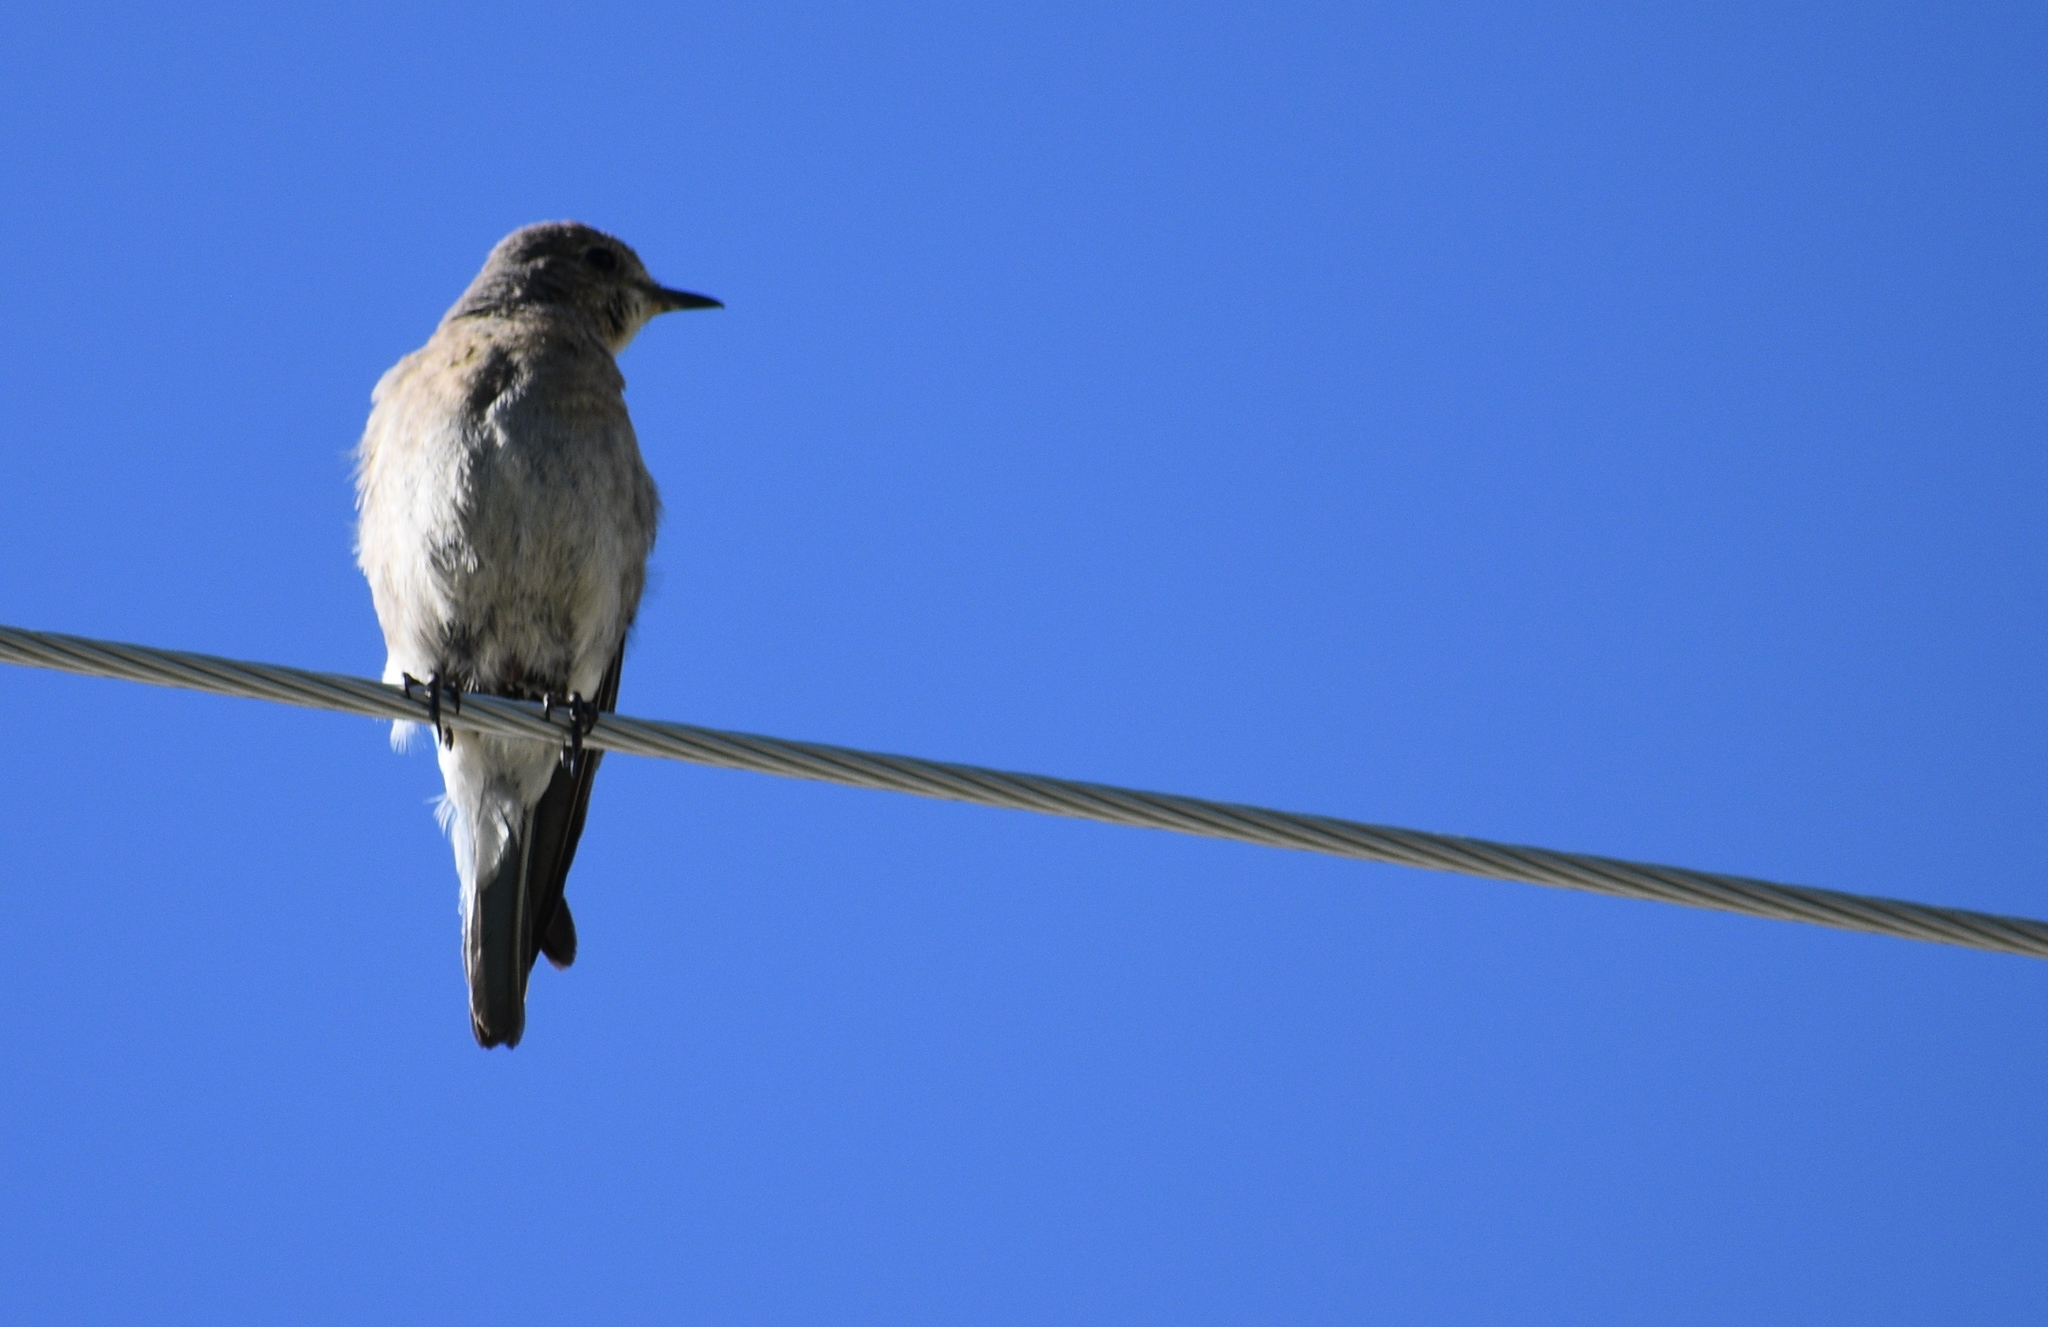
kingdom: Animalia
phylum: Chordata
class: Aves
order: Passeriformes
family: Turdidae
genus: Sialia
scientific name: Sialia currucoides
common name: Mountain bluebird
